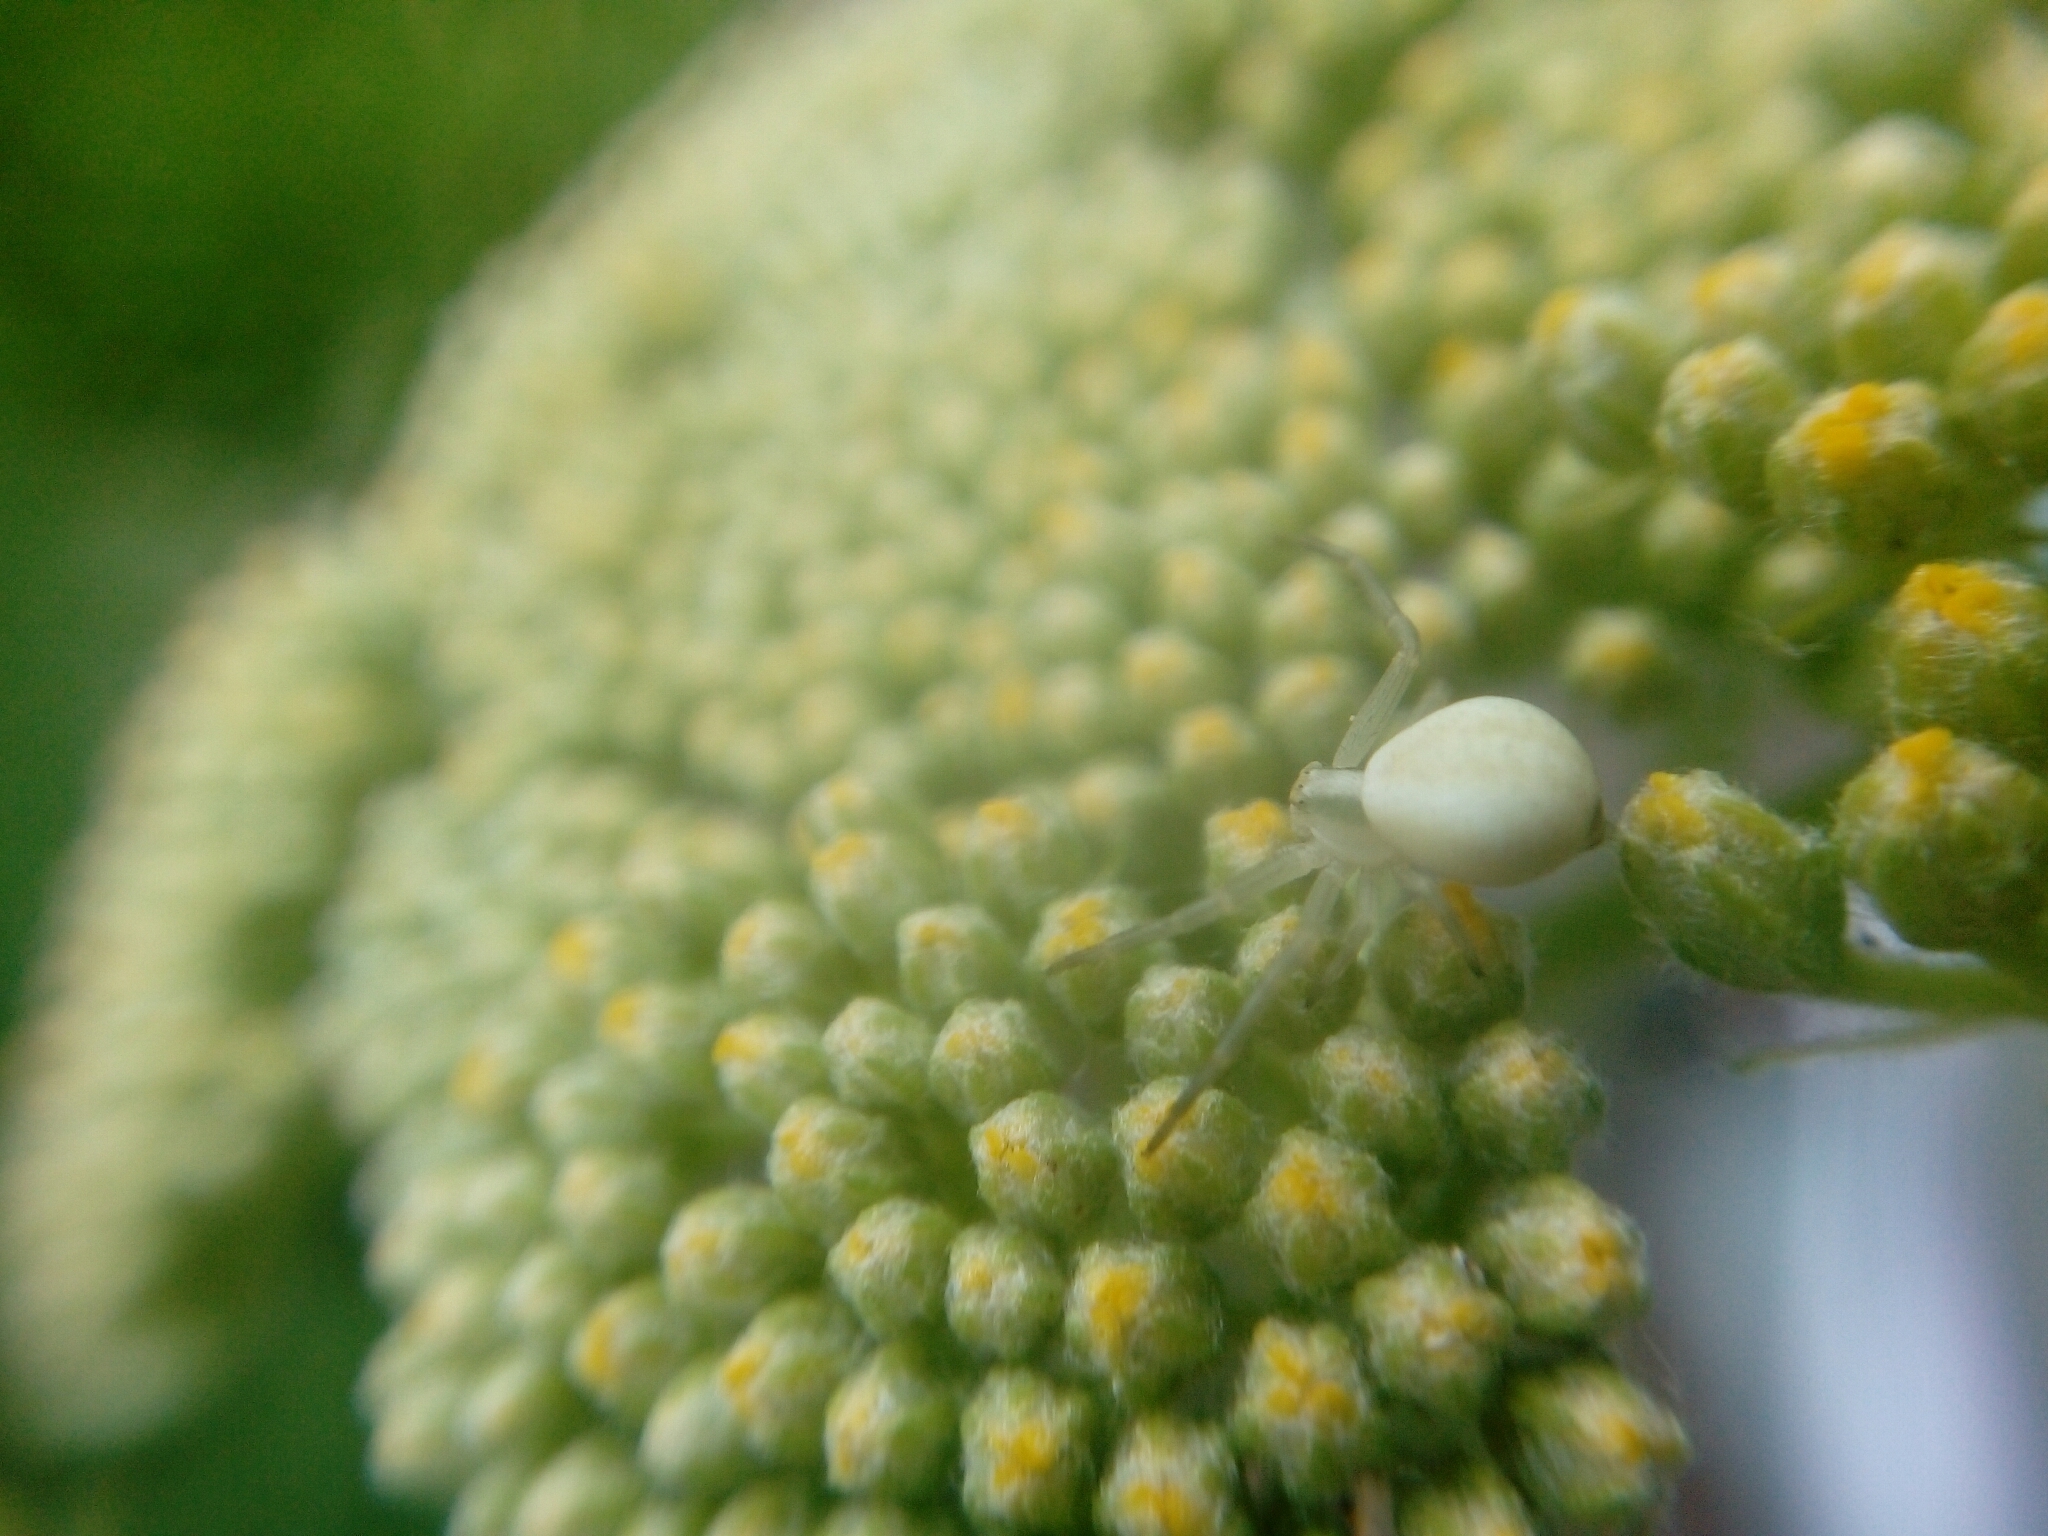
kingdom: Animalia
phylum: Arthropoda
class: Arachnida
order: Araneae
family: Thomisidae
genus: Misumena
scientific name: Misumena vatia
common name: Goldenrod crab spider
